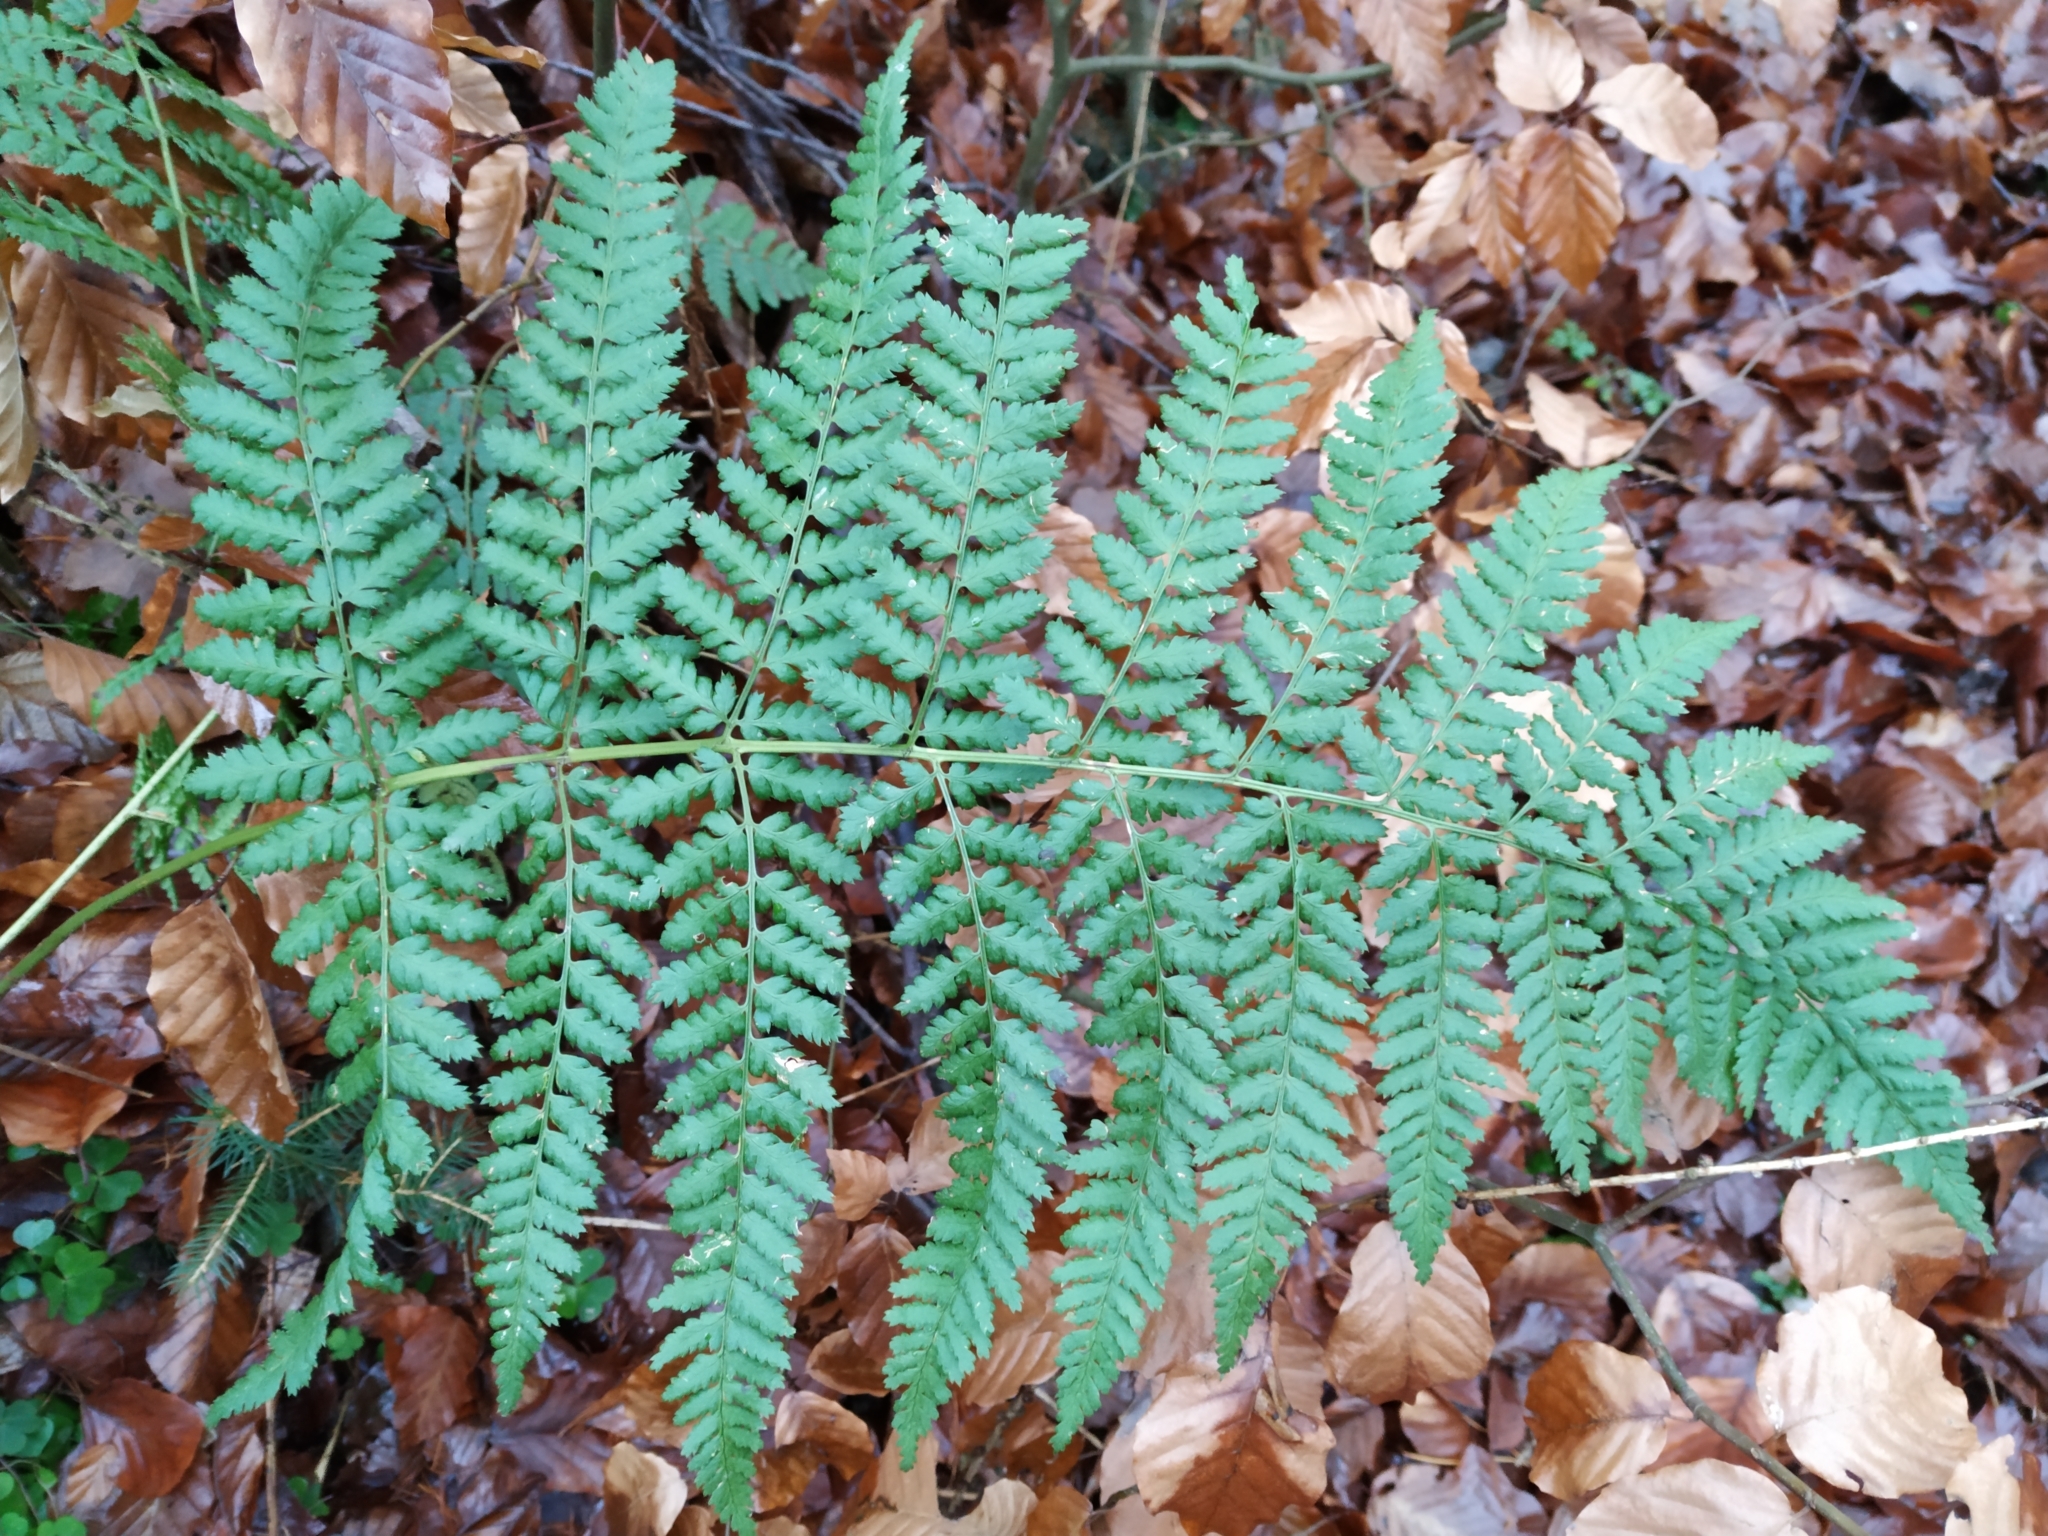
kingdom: Plantae
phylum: Tracheophyta
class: Polypodiopsida
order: Polypodiales
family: Dryopteridaceae
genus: Dryopteris
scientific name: Dryopteris dilatata
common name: Broad buckler-fern
